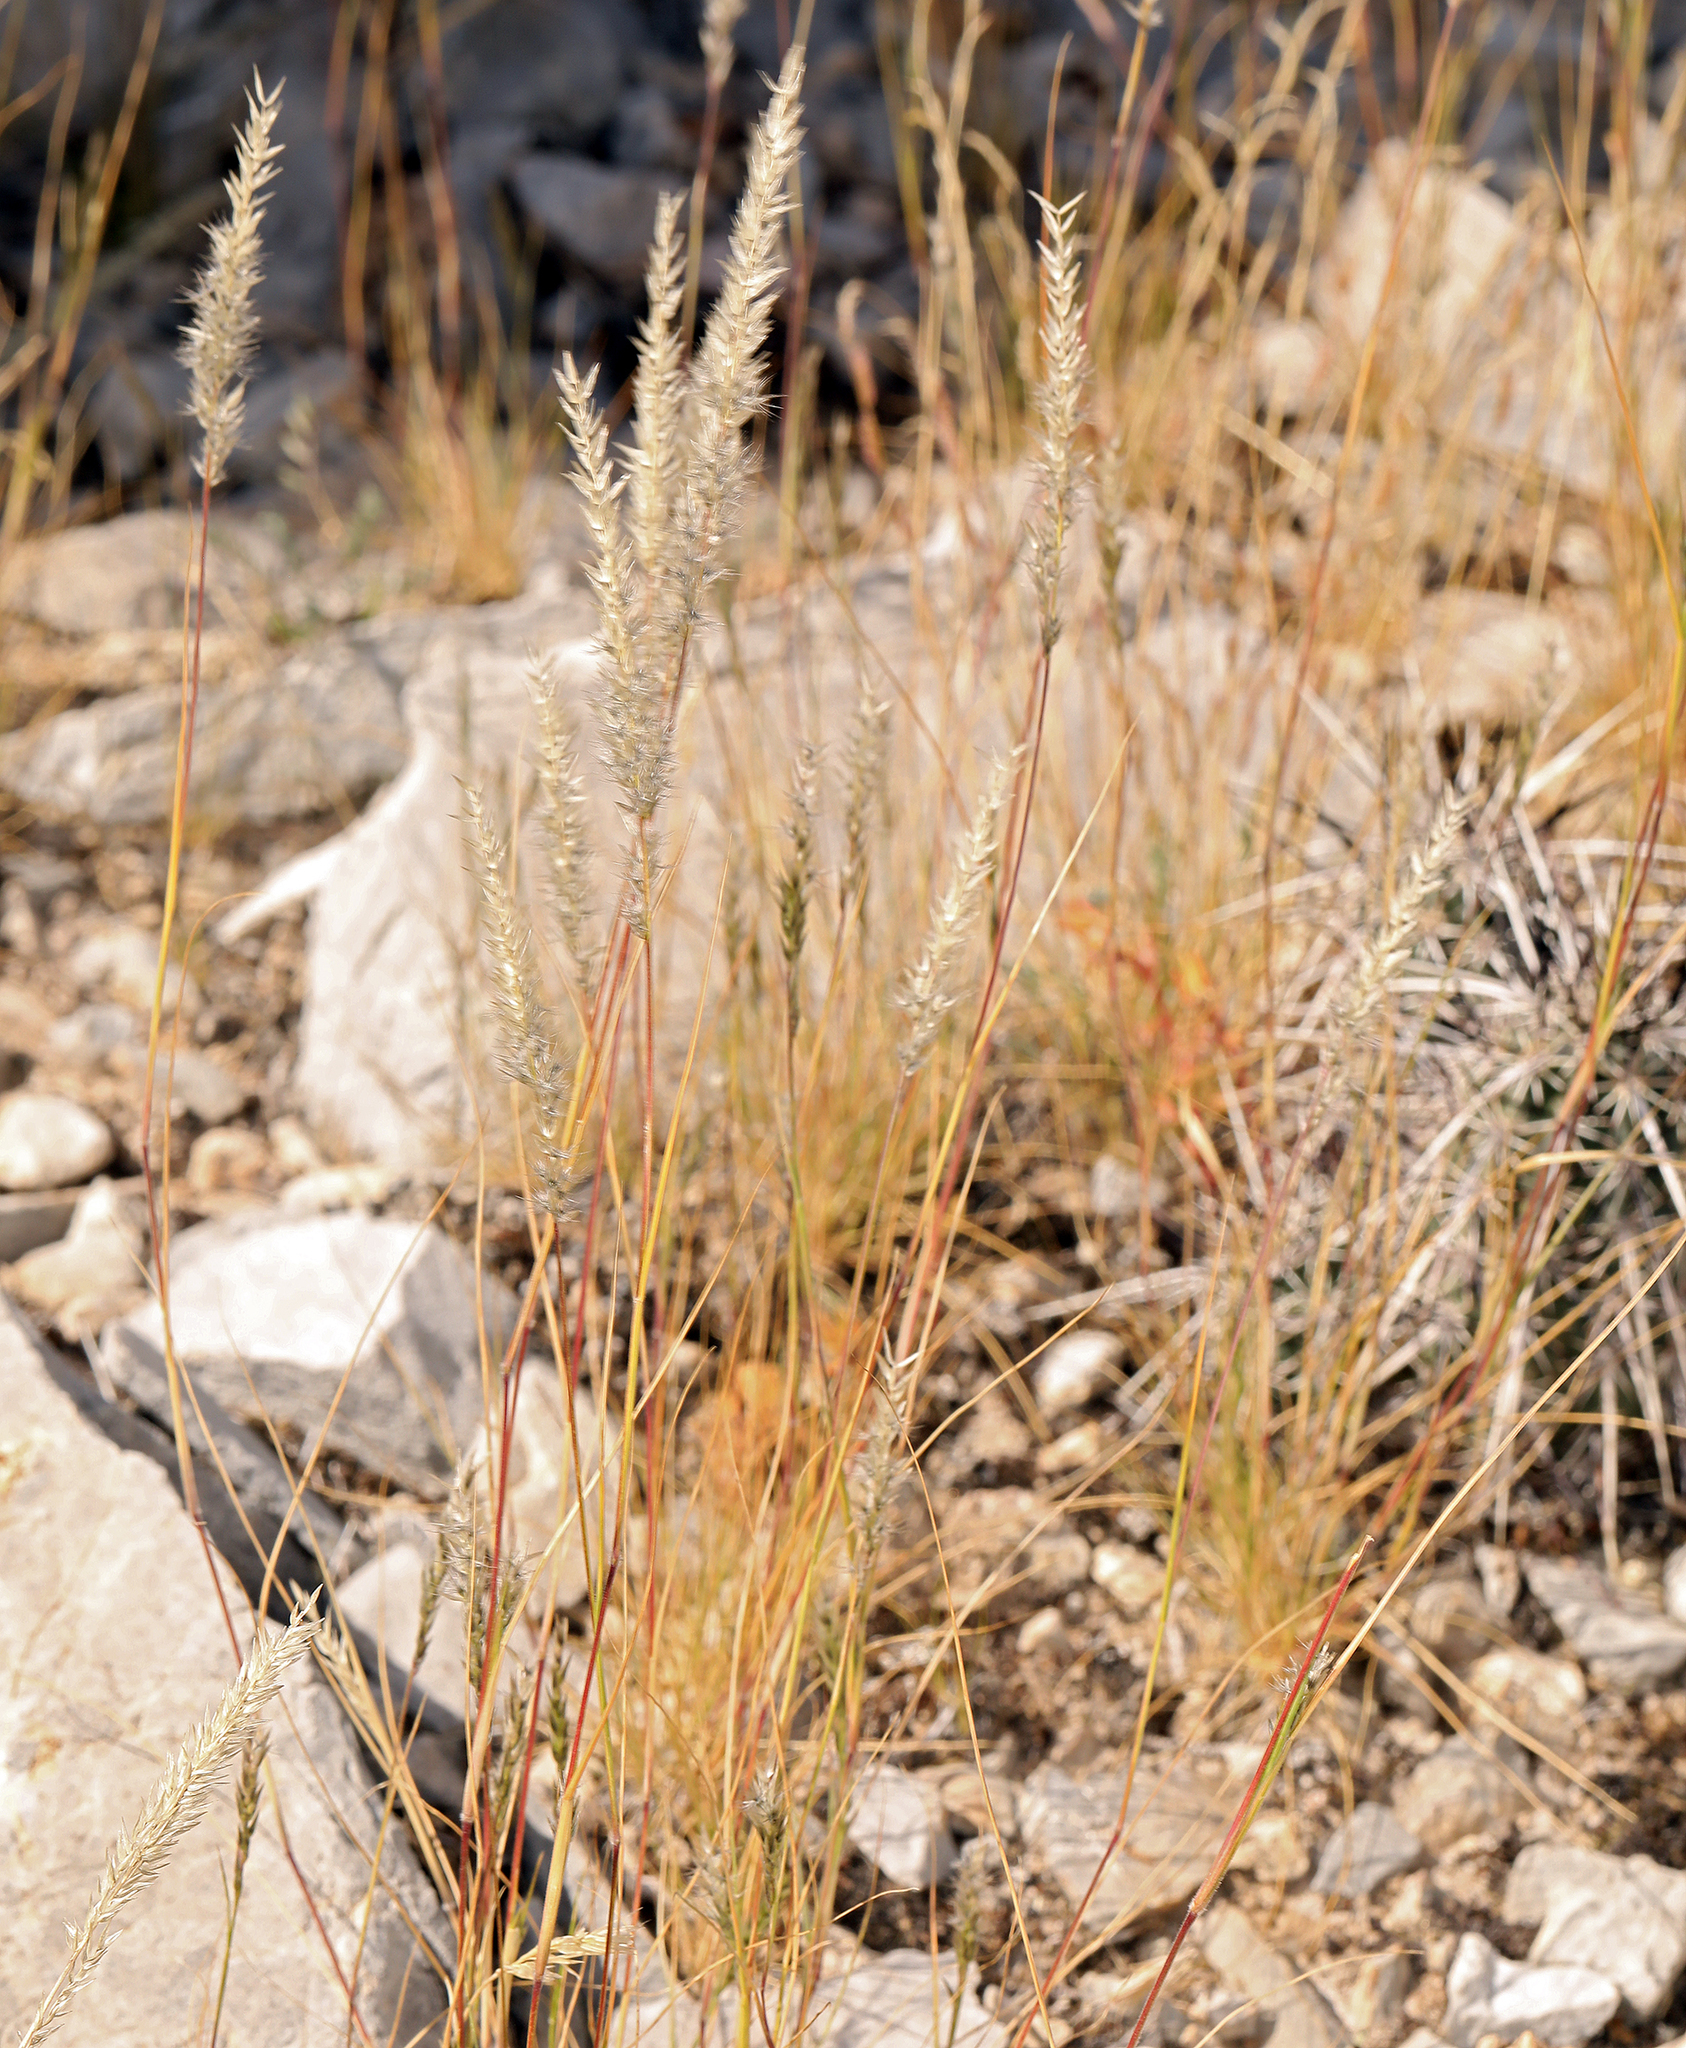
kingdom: Plantae
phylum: Tracheophyta
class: Liliopsida
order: Poales
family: Poaceae
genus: Enneapogon
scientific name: Enneapogon desvauxii
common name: Feather pappus grass
